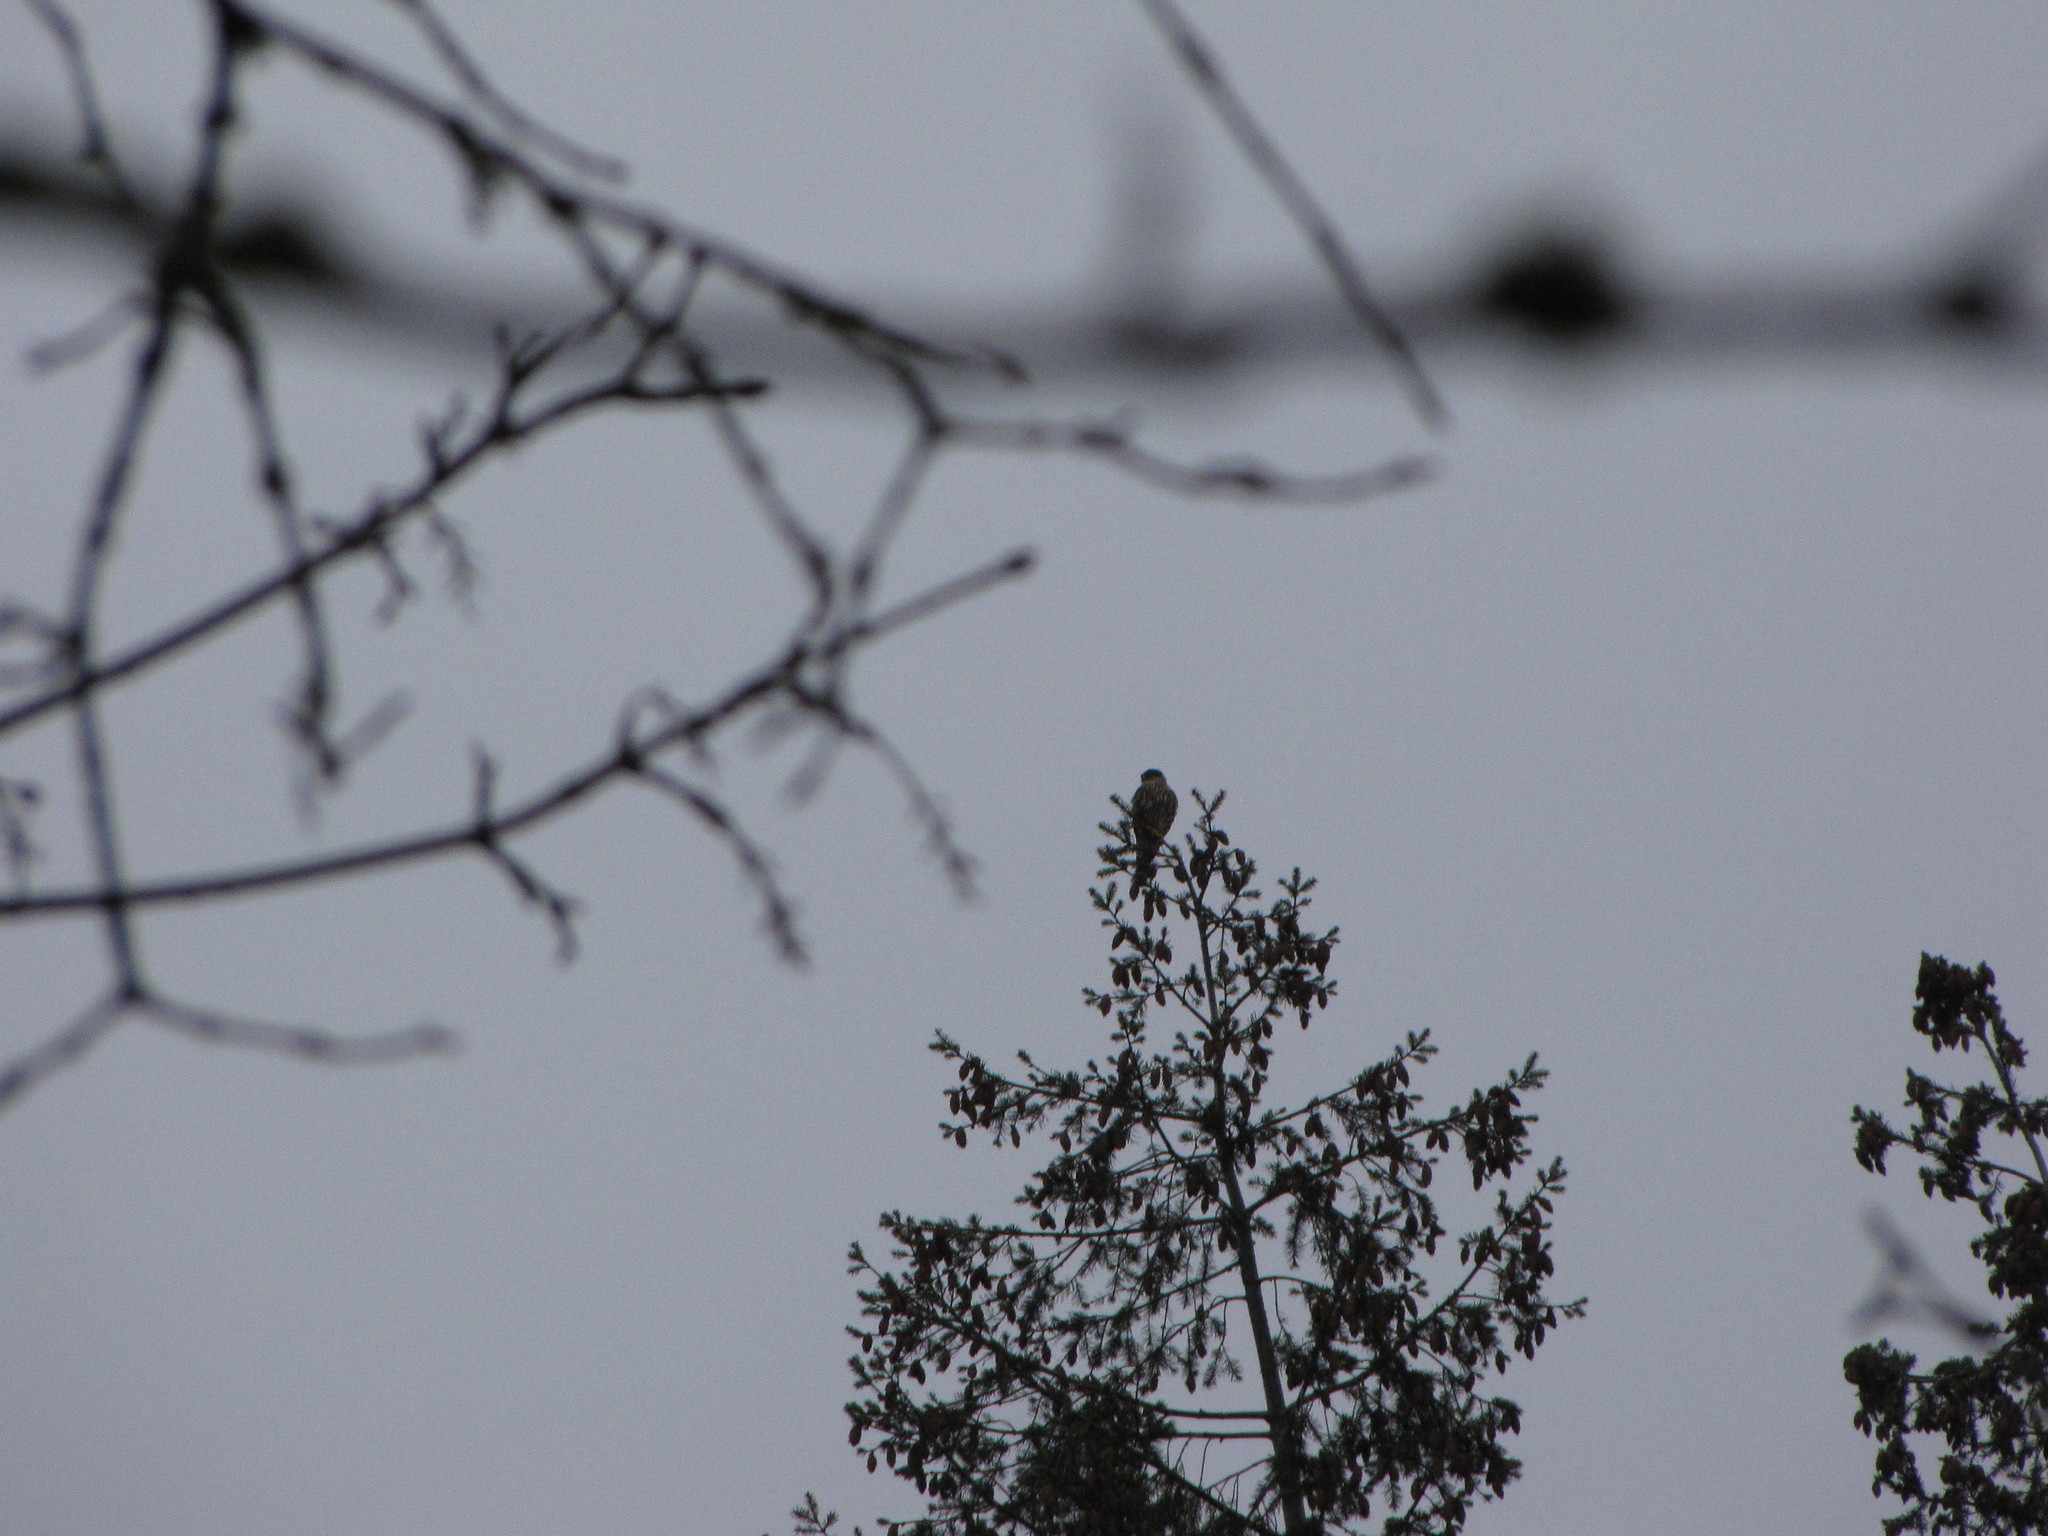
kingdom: Animalia
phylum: Chordata
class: Aves
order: Falconiformes
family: Falconidae
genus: Falco
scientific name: Falco columbarius
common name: Merlin
